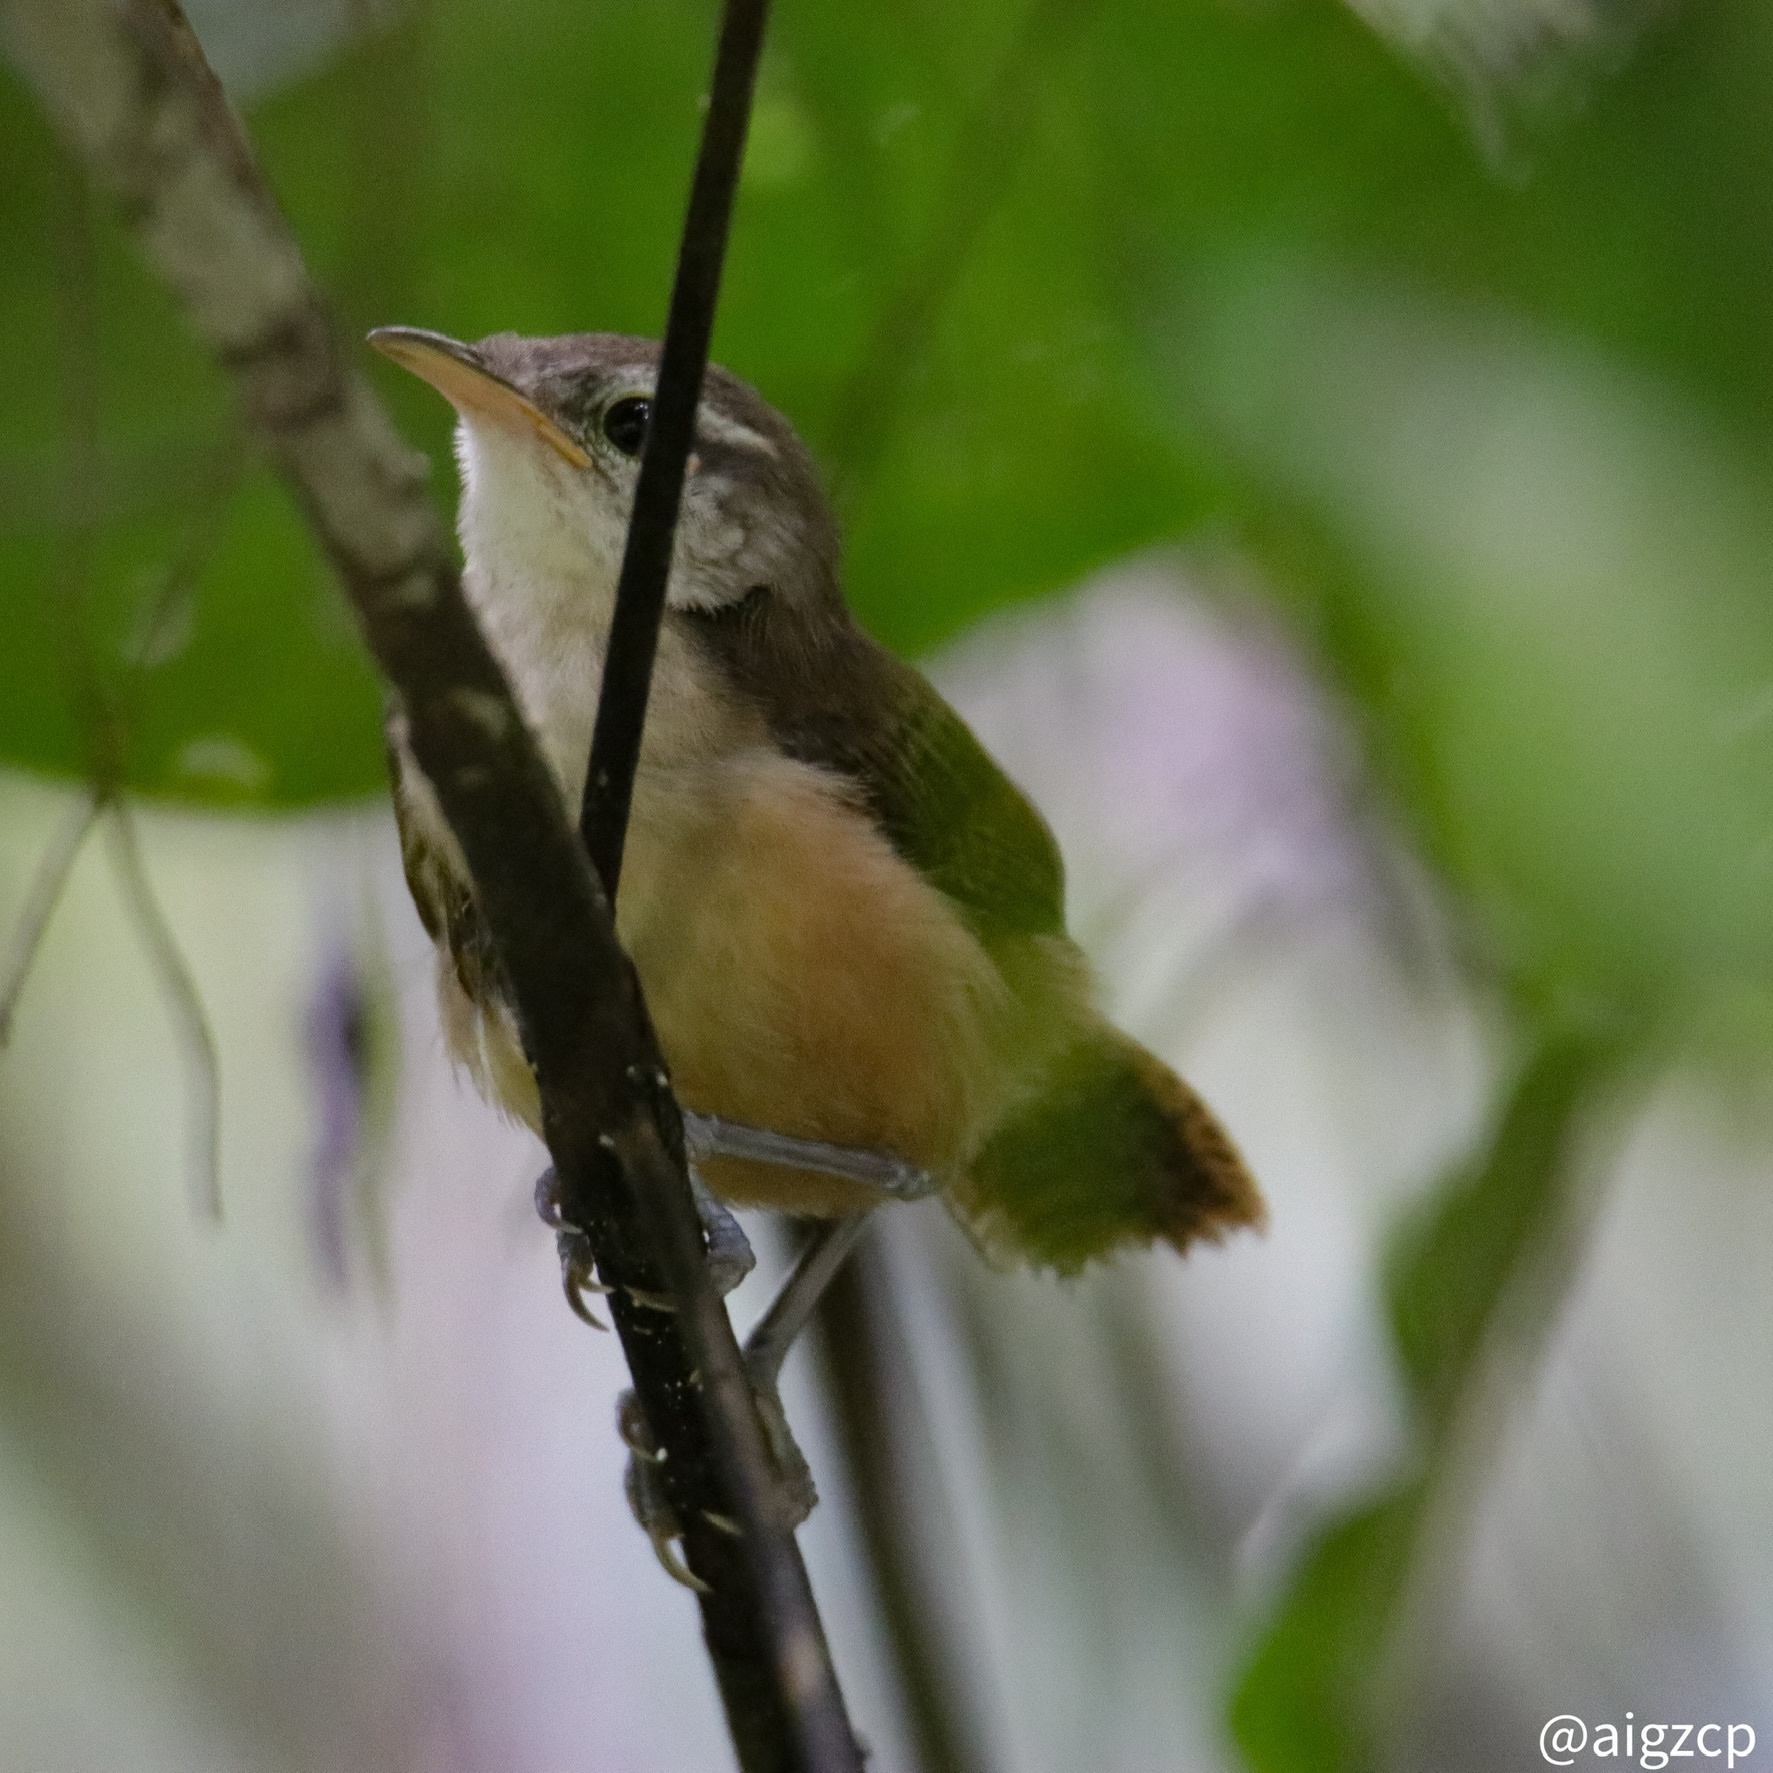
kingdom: Animalia
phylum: Chordata
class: Aves
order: Passeriformes
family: Troglodytidae
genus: Cantorchilus
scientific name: Cantorchilus leucotis
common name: Buff-breasted wren
